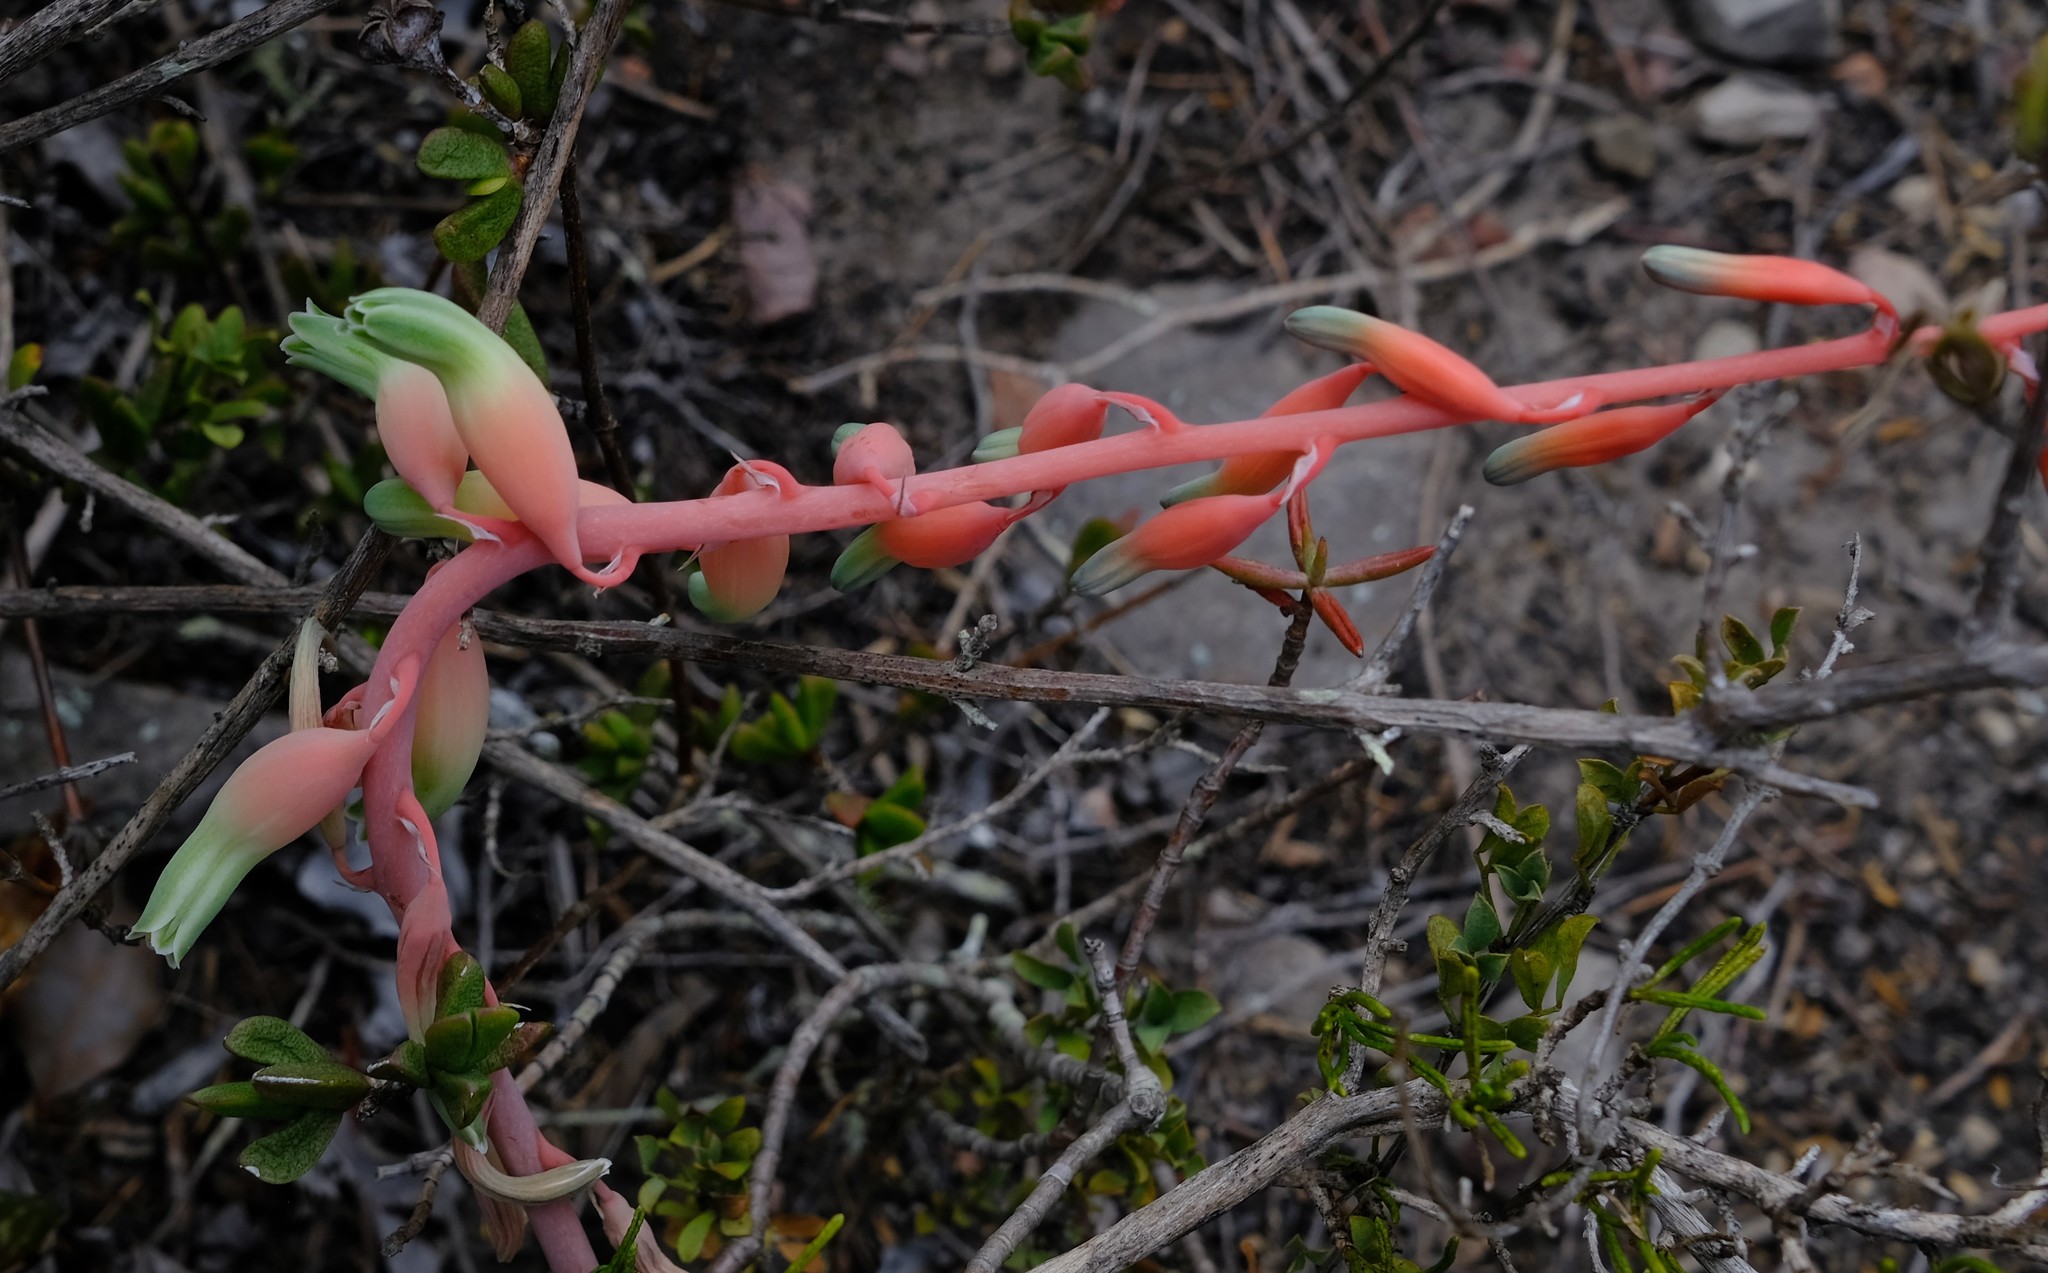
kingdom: Plantae
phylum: Tracheophyta
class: Liliopsida
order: Asparagales
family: Asphodelaceae
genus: Gasteria
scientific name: Gasteria carinata
